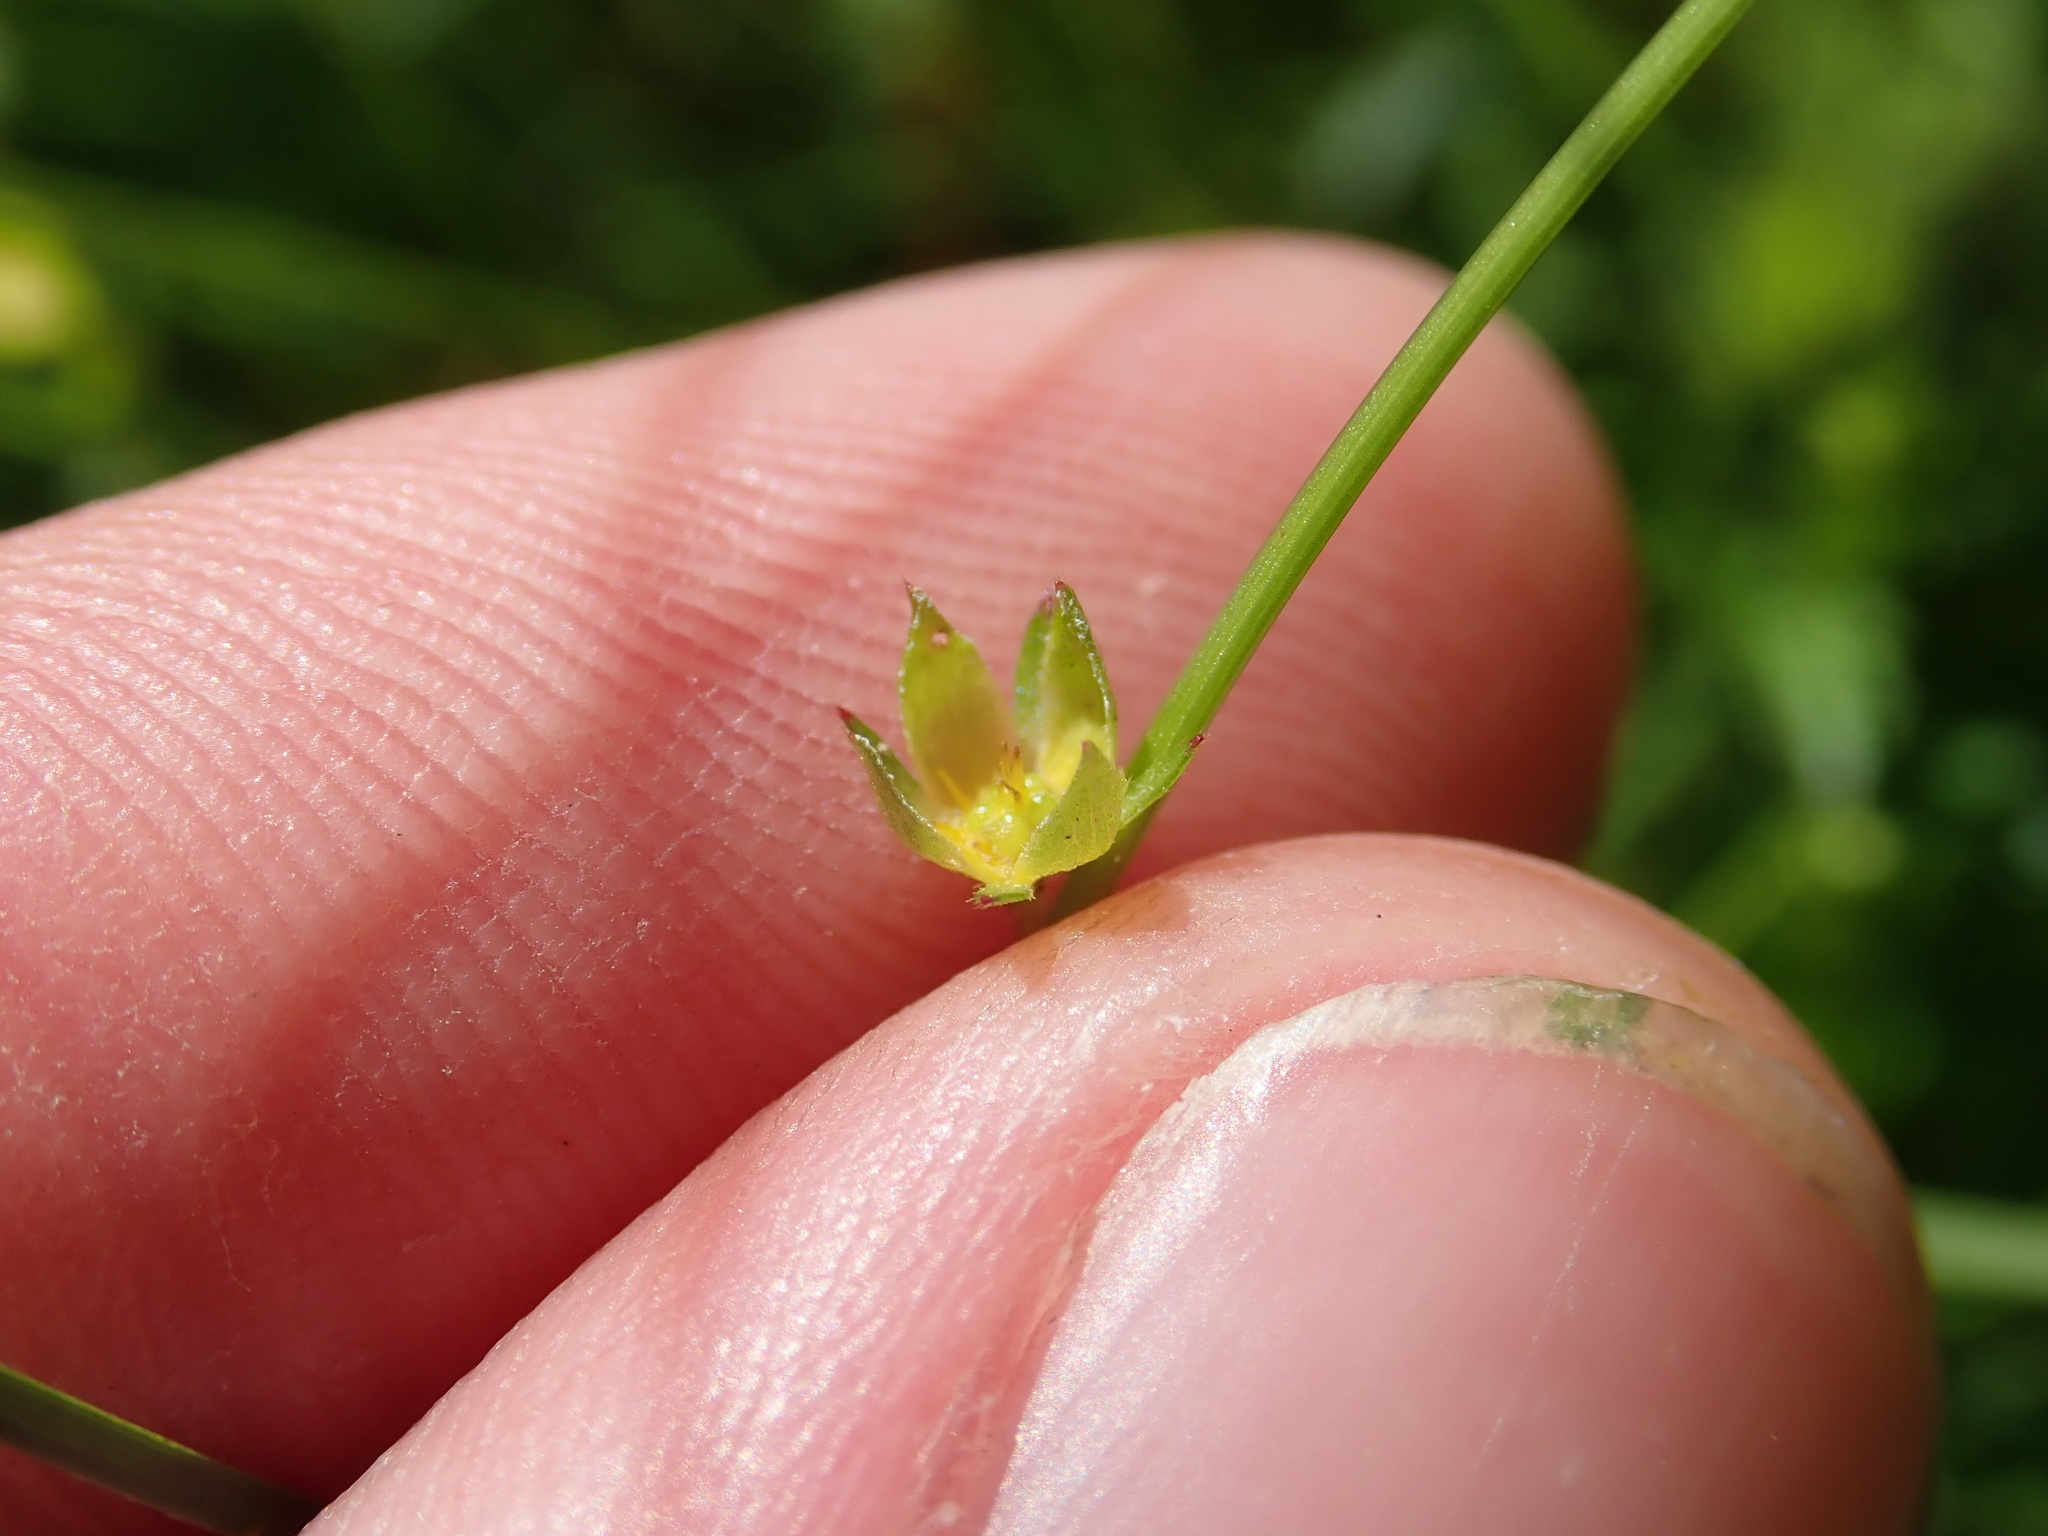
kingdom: Plantae
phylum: Tracheophyta
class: Magnoliopsida
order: Rosales
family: Rosaceae
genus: Potentilla
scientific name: Potentilla erecta
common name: Tormentil
